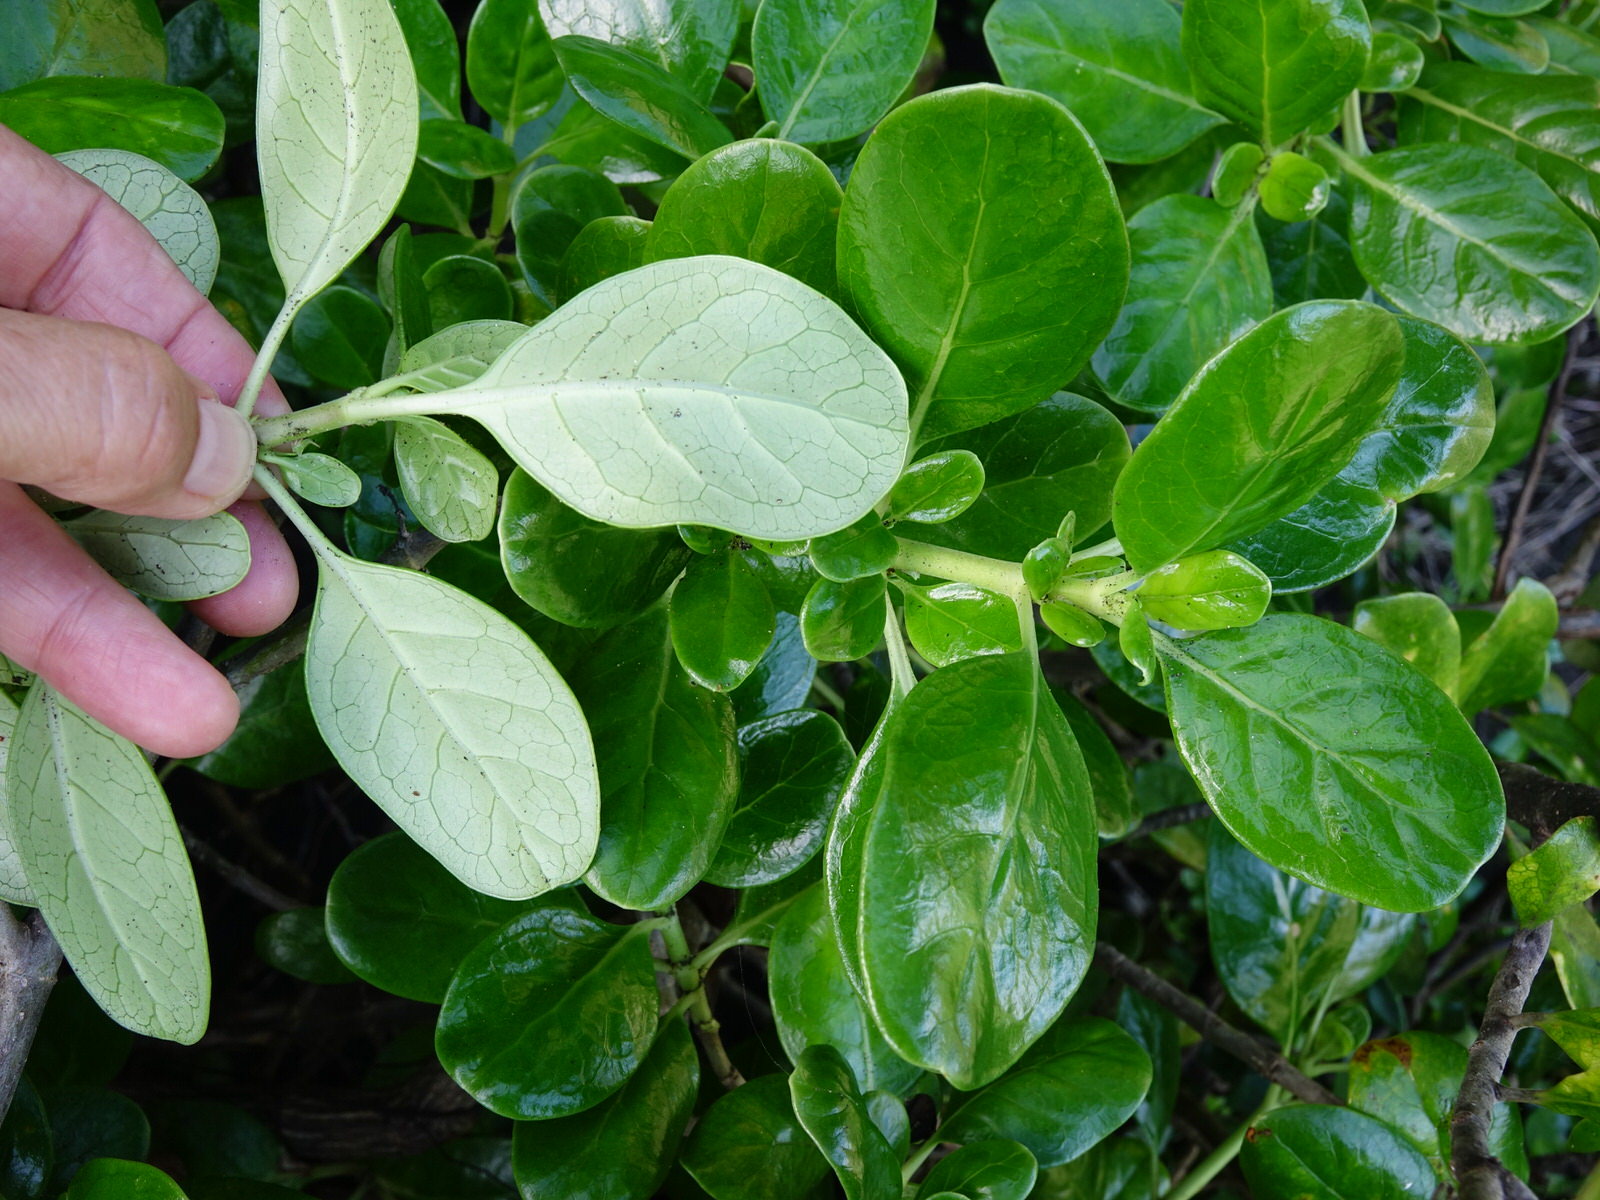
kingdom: Plantae
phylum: Tracheophyta
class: Magnoliopsida
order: Gentianales
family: Rubiaceae
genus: Coprosma
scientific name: Coprosma repens
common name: Tree bedstraw
